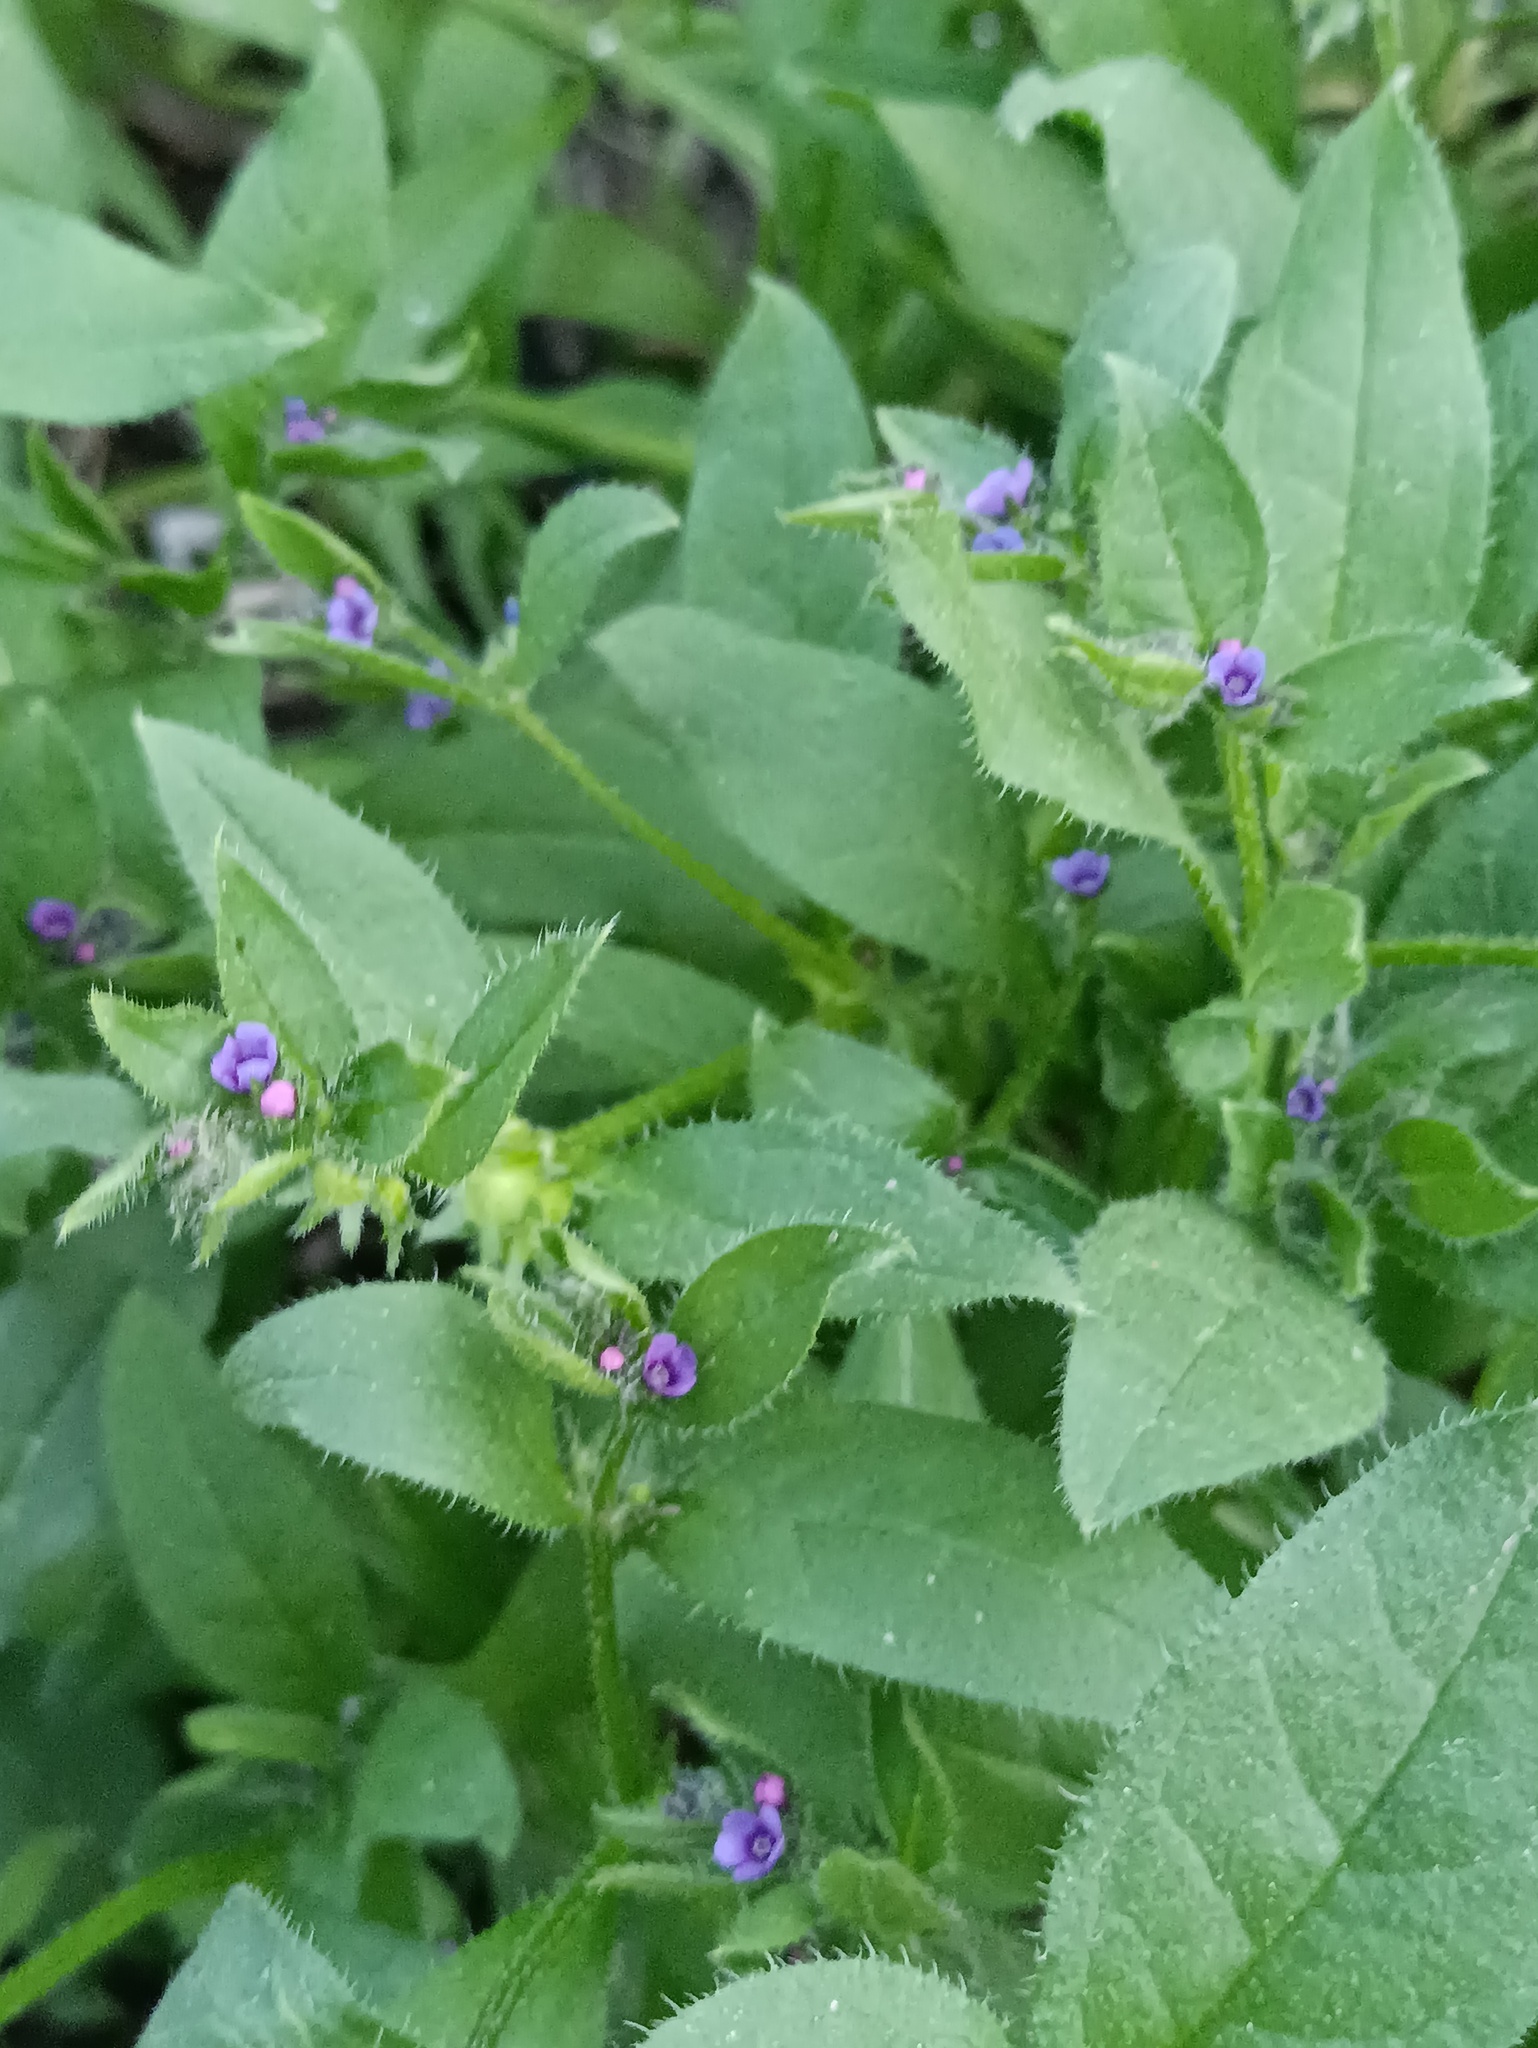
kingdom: Plantae
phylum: Tracheophyta
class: Magnoliopsida
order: Boraginales
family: Boraginaceae
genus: Asperugo
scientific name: Asperugo procumbens
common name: Madwort
